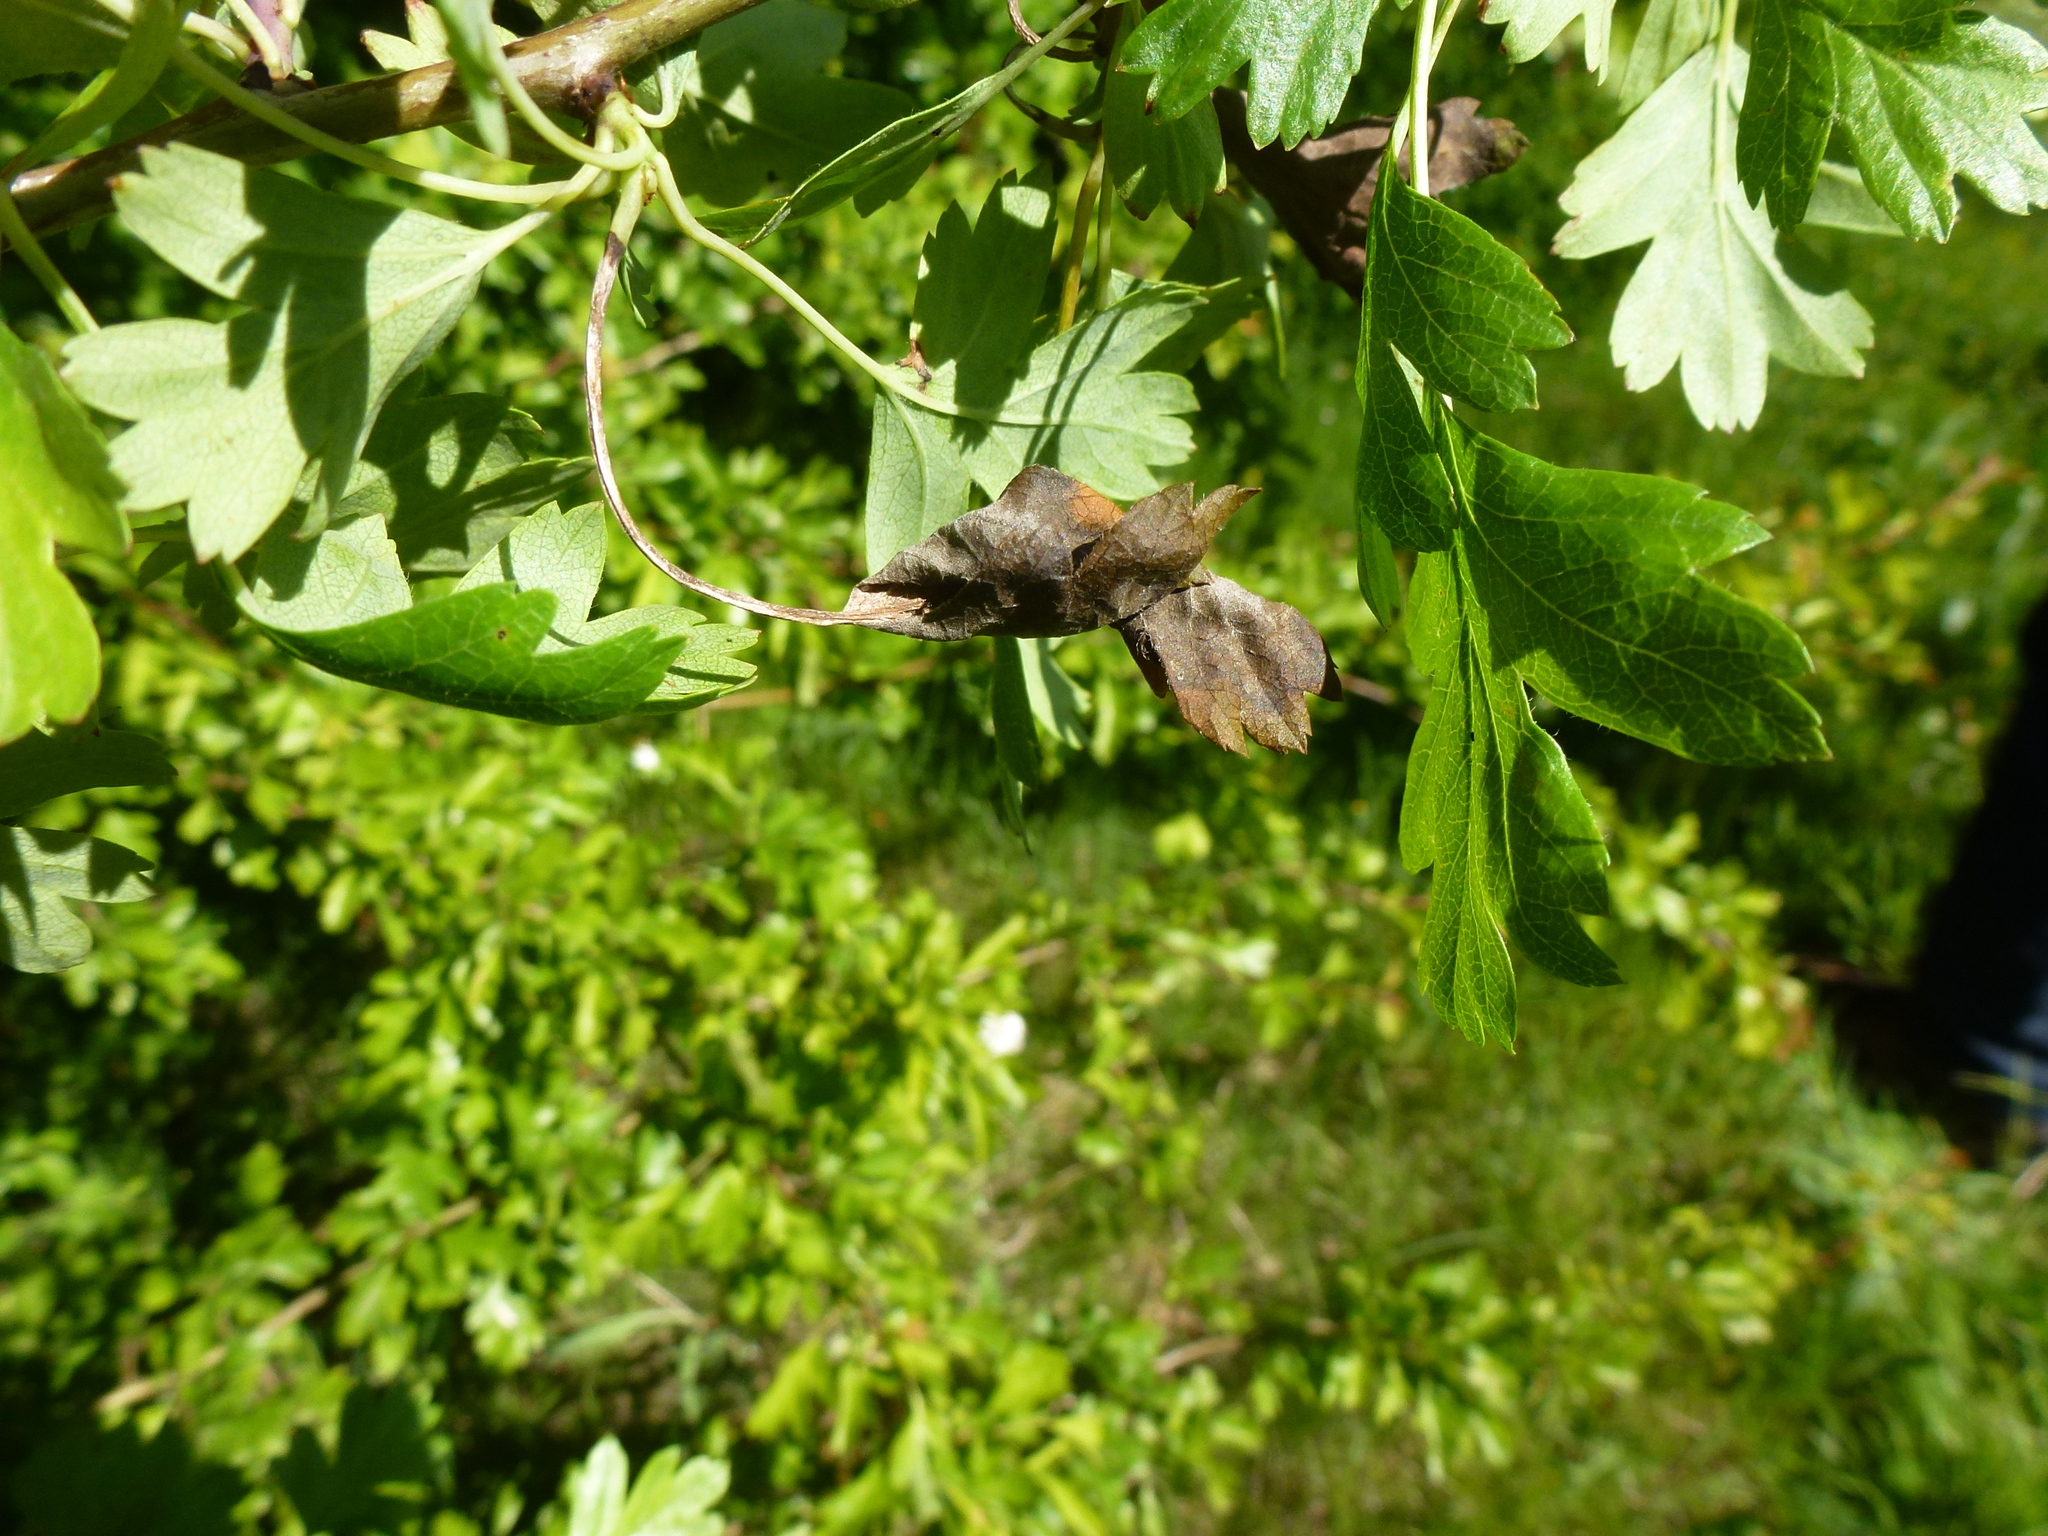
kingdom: Fungi
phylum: Ascomycota
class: Leotiomycetes
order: Helotiales
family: Sclerotiniaceae
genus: Monilinia
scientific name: Monilinia johnsonii
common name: Haw goblet
